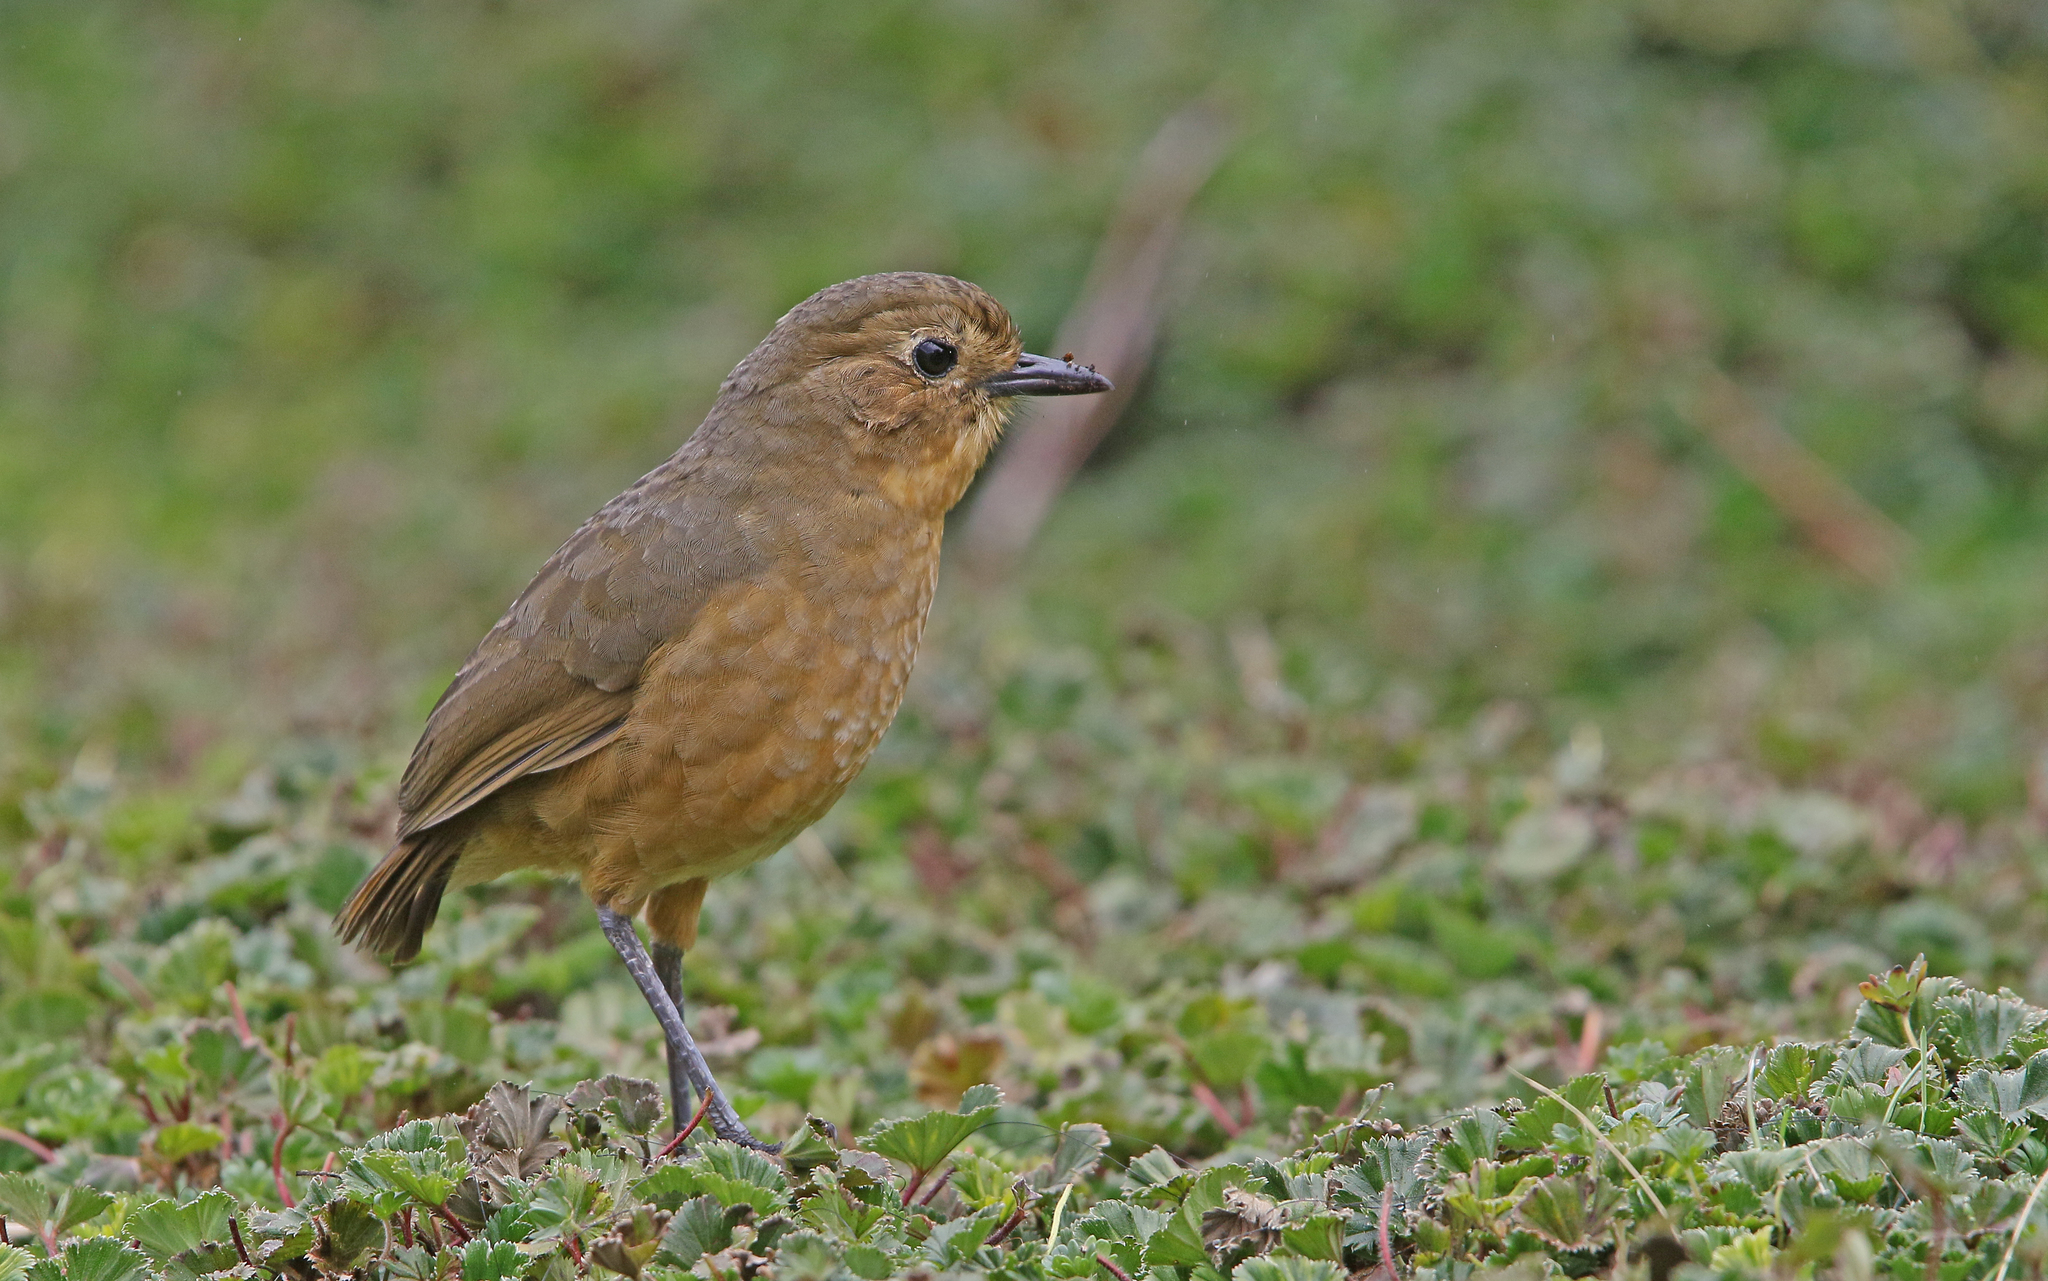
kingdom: Animalia
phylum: Chordata
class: Aves
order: Passeriformes
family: Grallariidae
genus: Grallaria
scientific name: Grallaria quitensis
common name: Tawny antpitta
